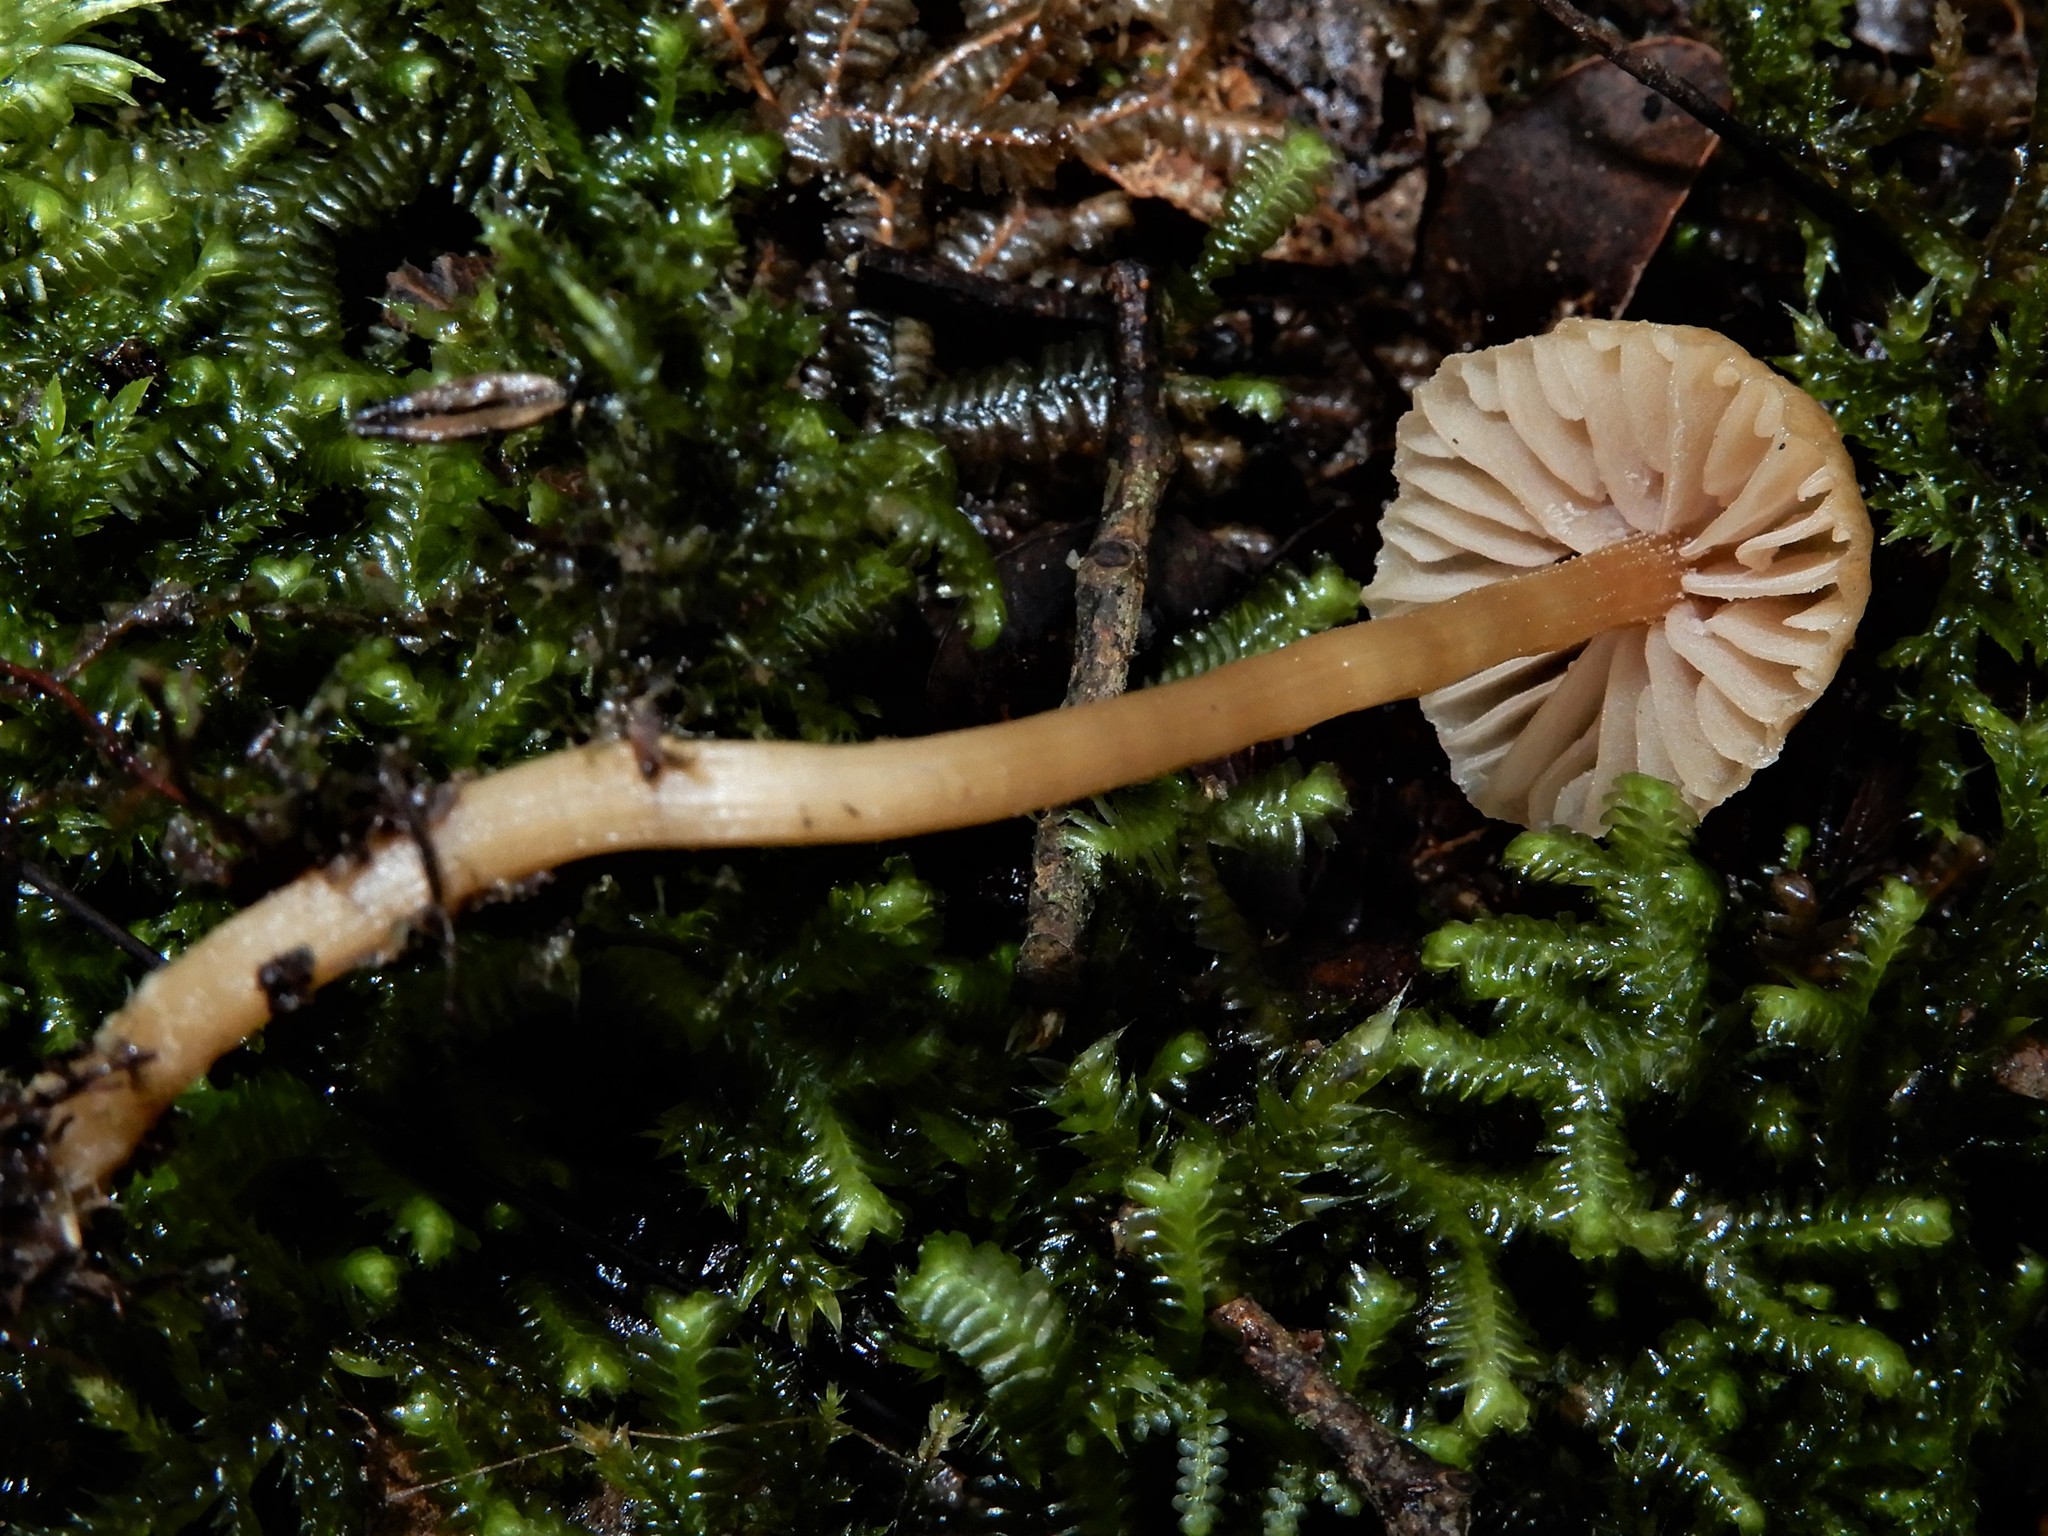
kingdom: Fungi
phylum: Basidiomycota
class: Agaricomycetes
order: Agaricales
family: Hydnangiaceae
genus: Laccaria
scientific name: Laccaria masoniae
